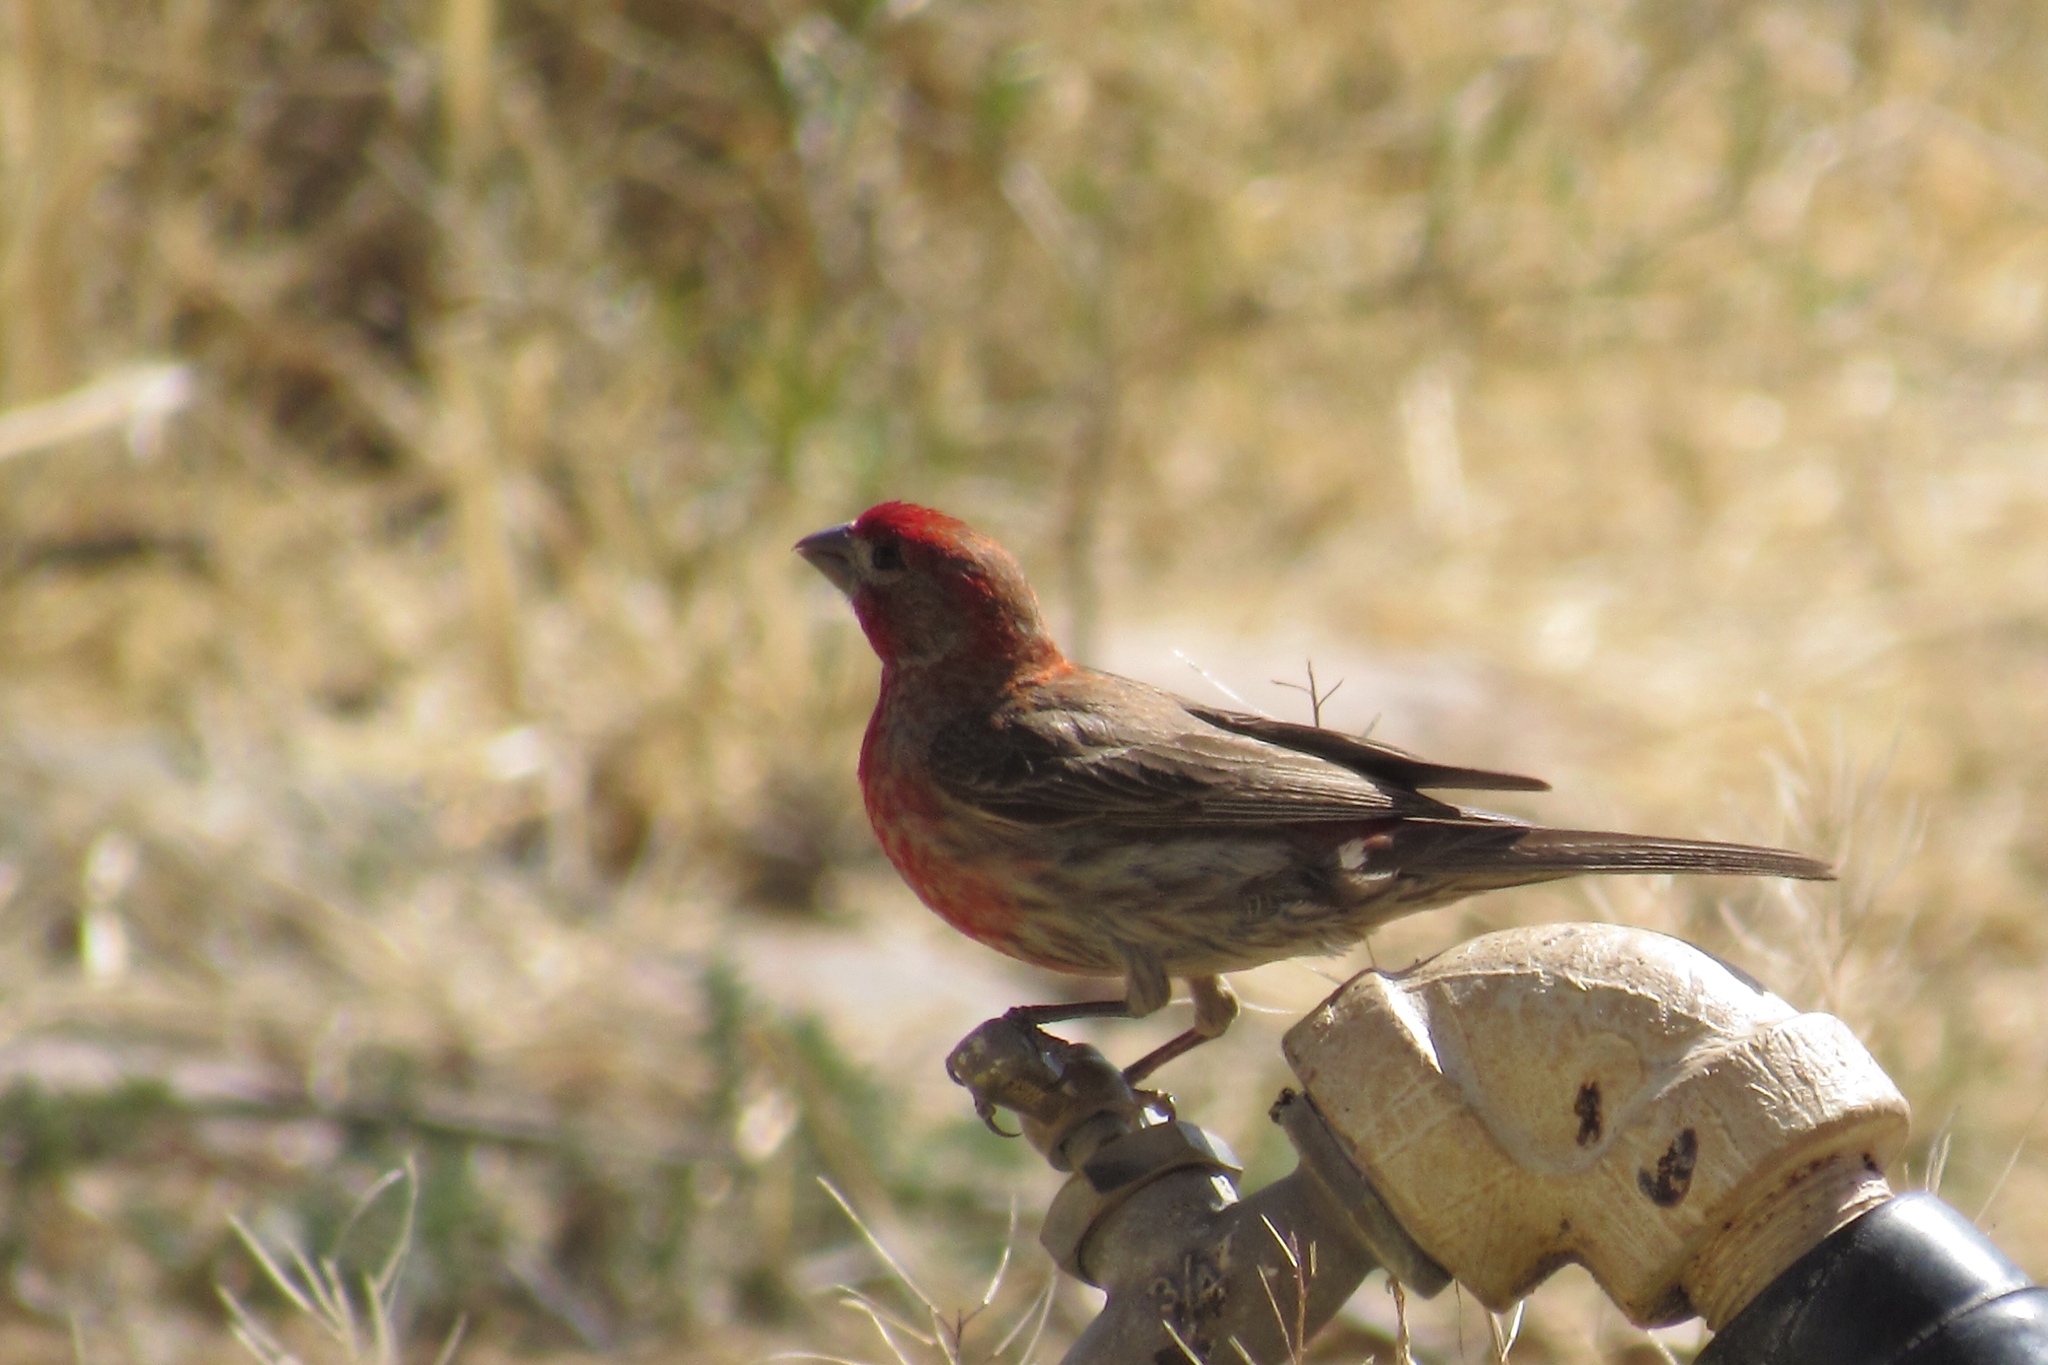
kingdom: Animalia
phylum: Chordata
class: Aves
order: Passeriformes
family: Fringillidae
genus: Haemorhous
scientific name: Haemorhous mexicanus
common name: House finch
